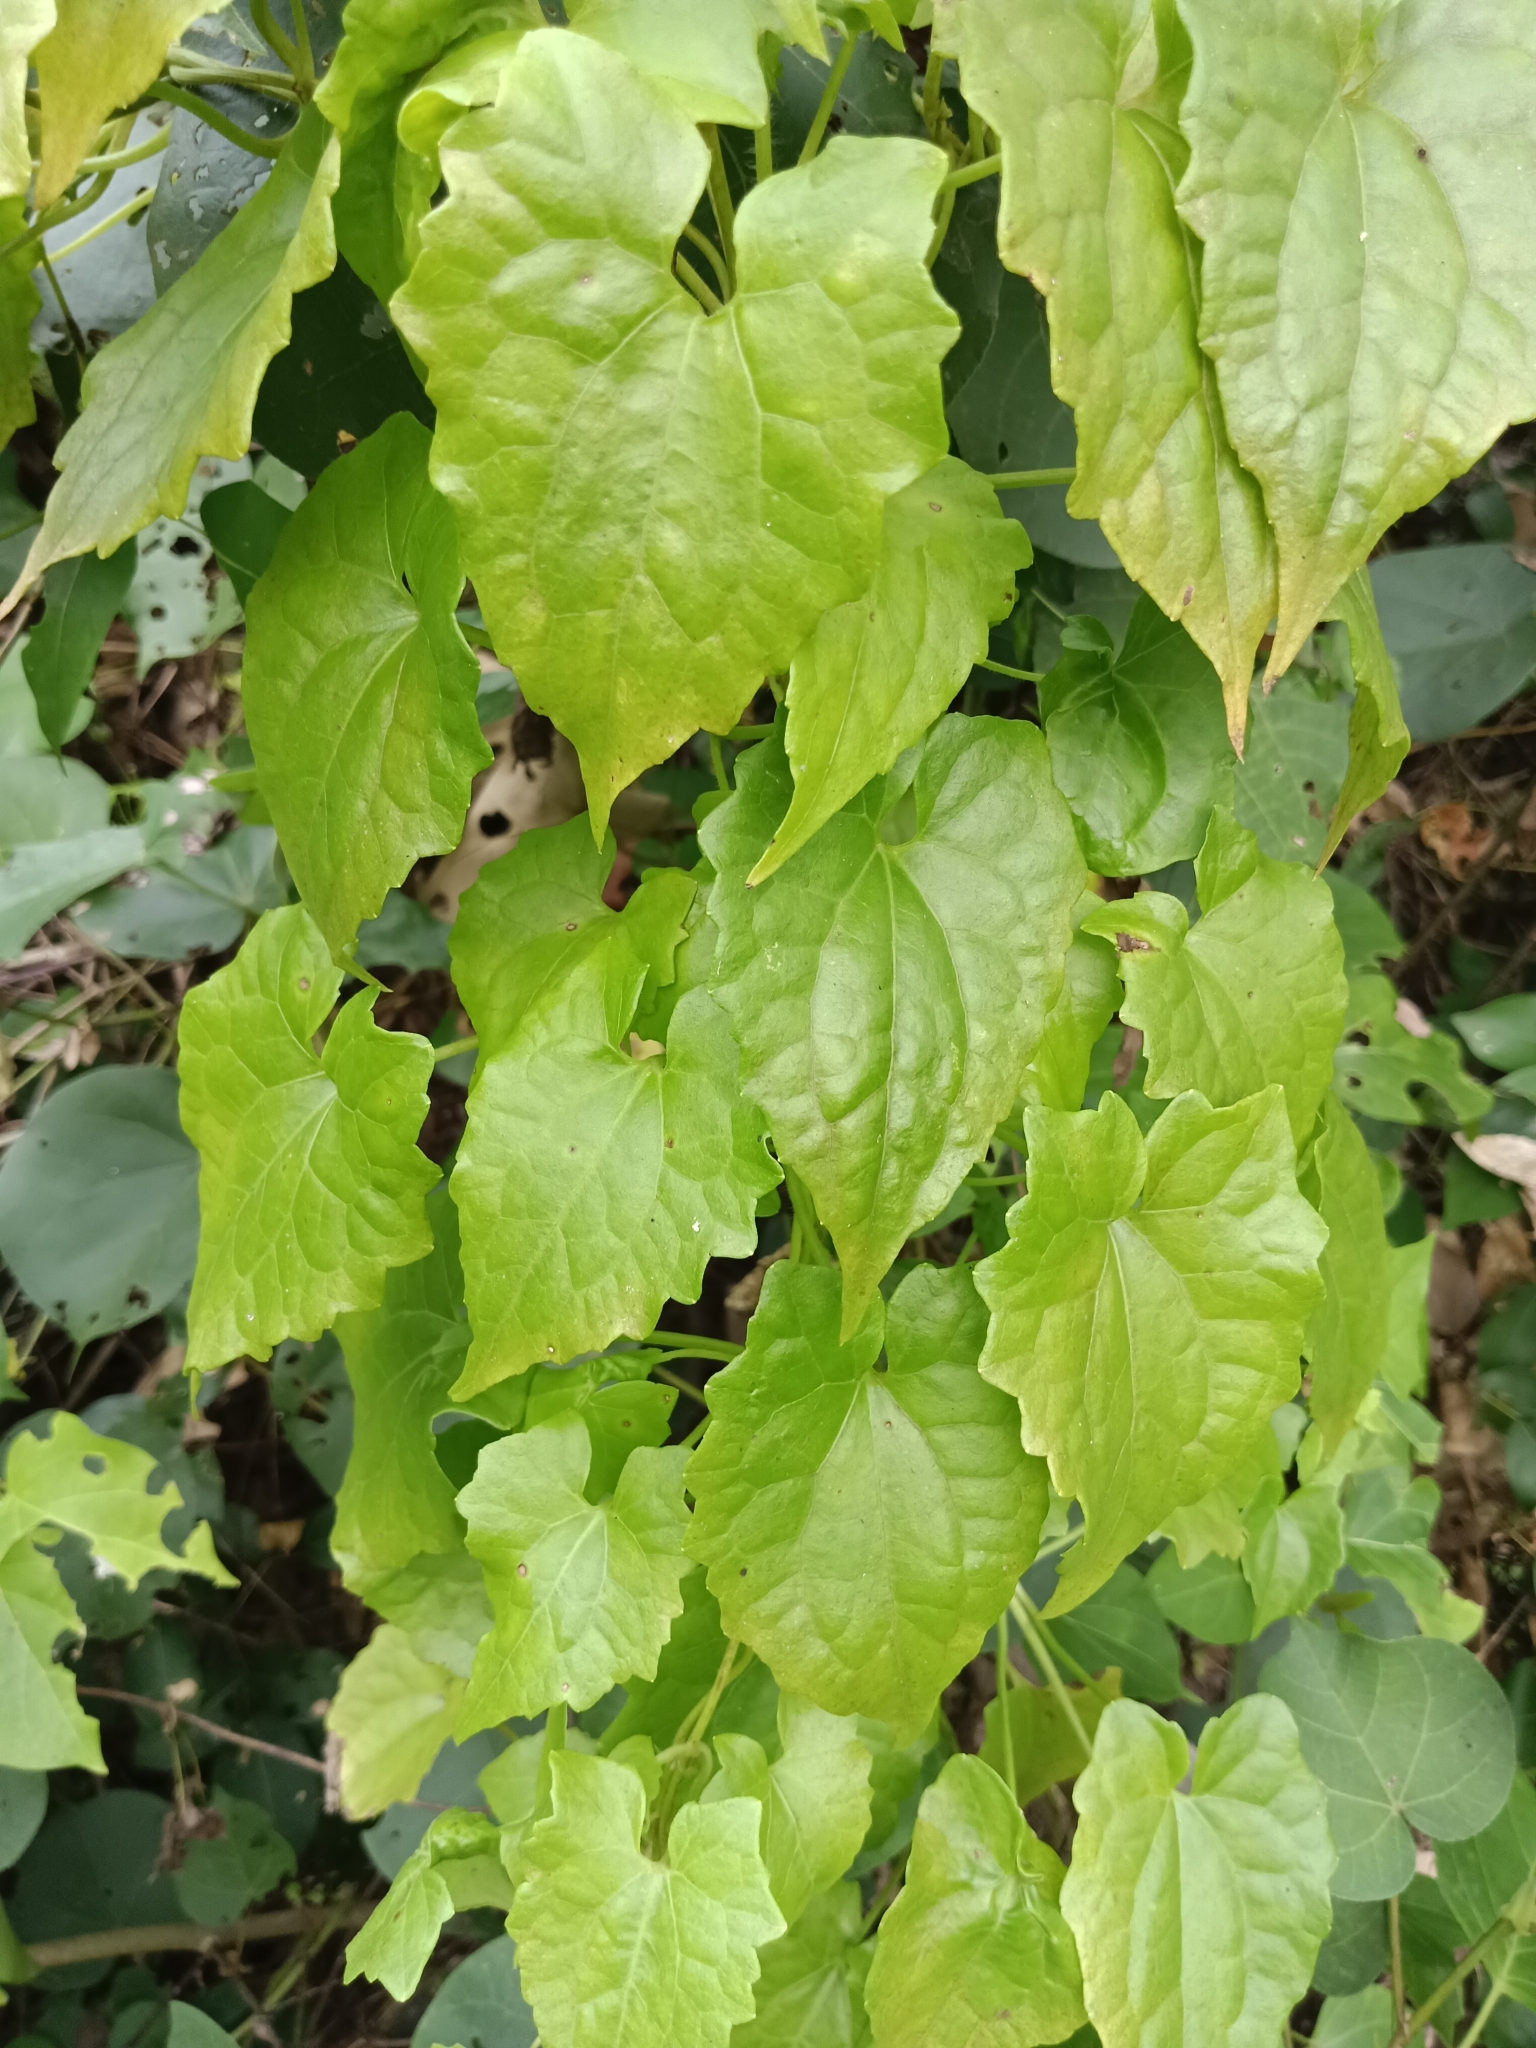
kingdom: Plantae
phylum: Tracheophyta
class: Magnoliopsida
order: Asterales
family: Asteraceae
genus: Mikania
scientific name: Mikania micrantha
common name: Mile-a-minute
